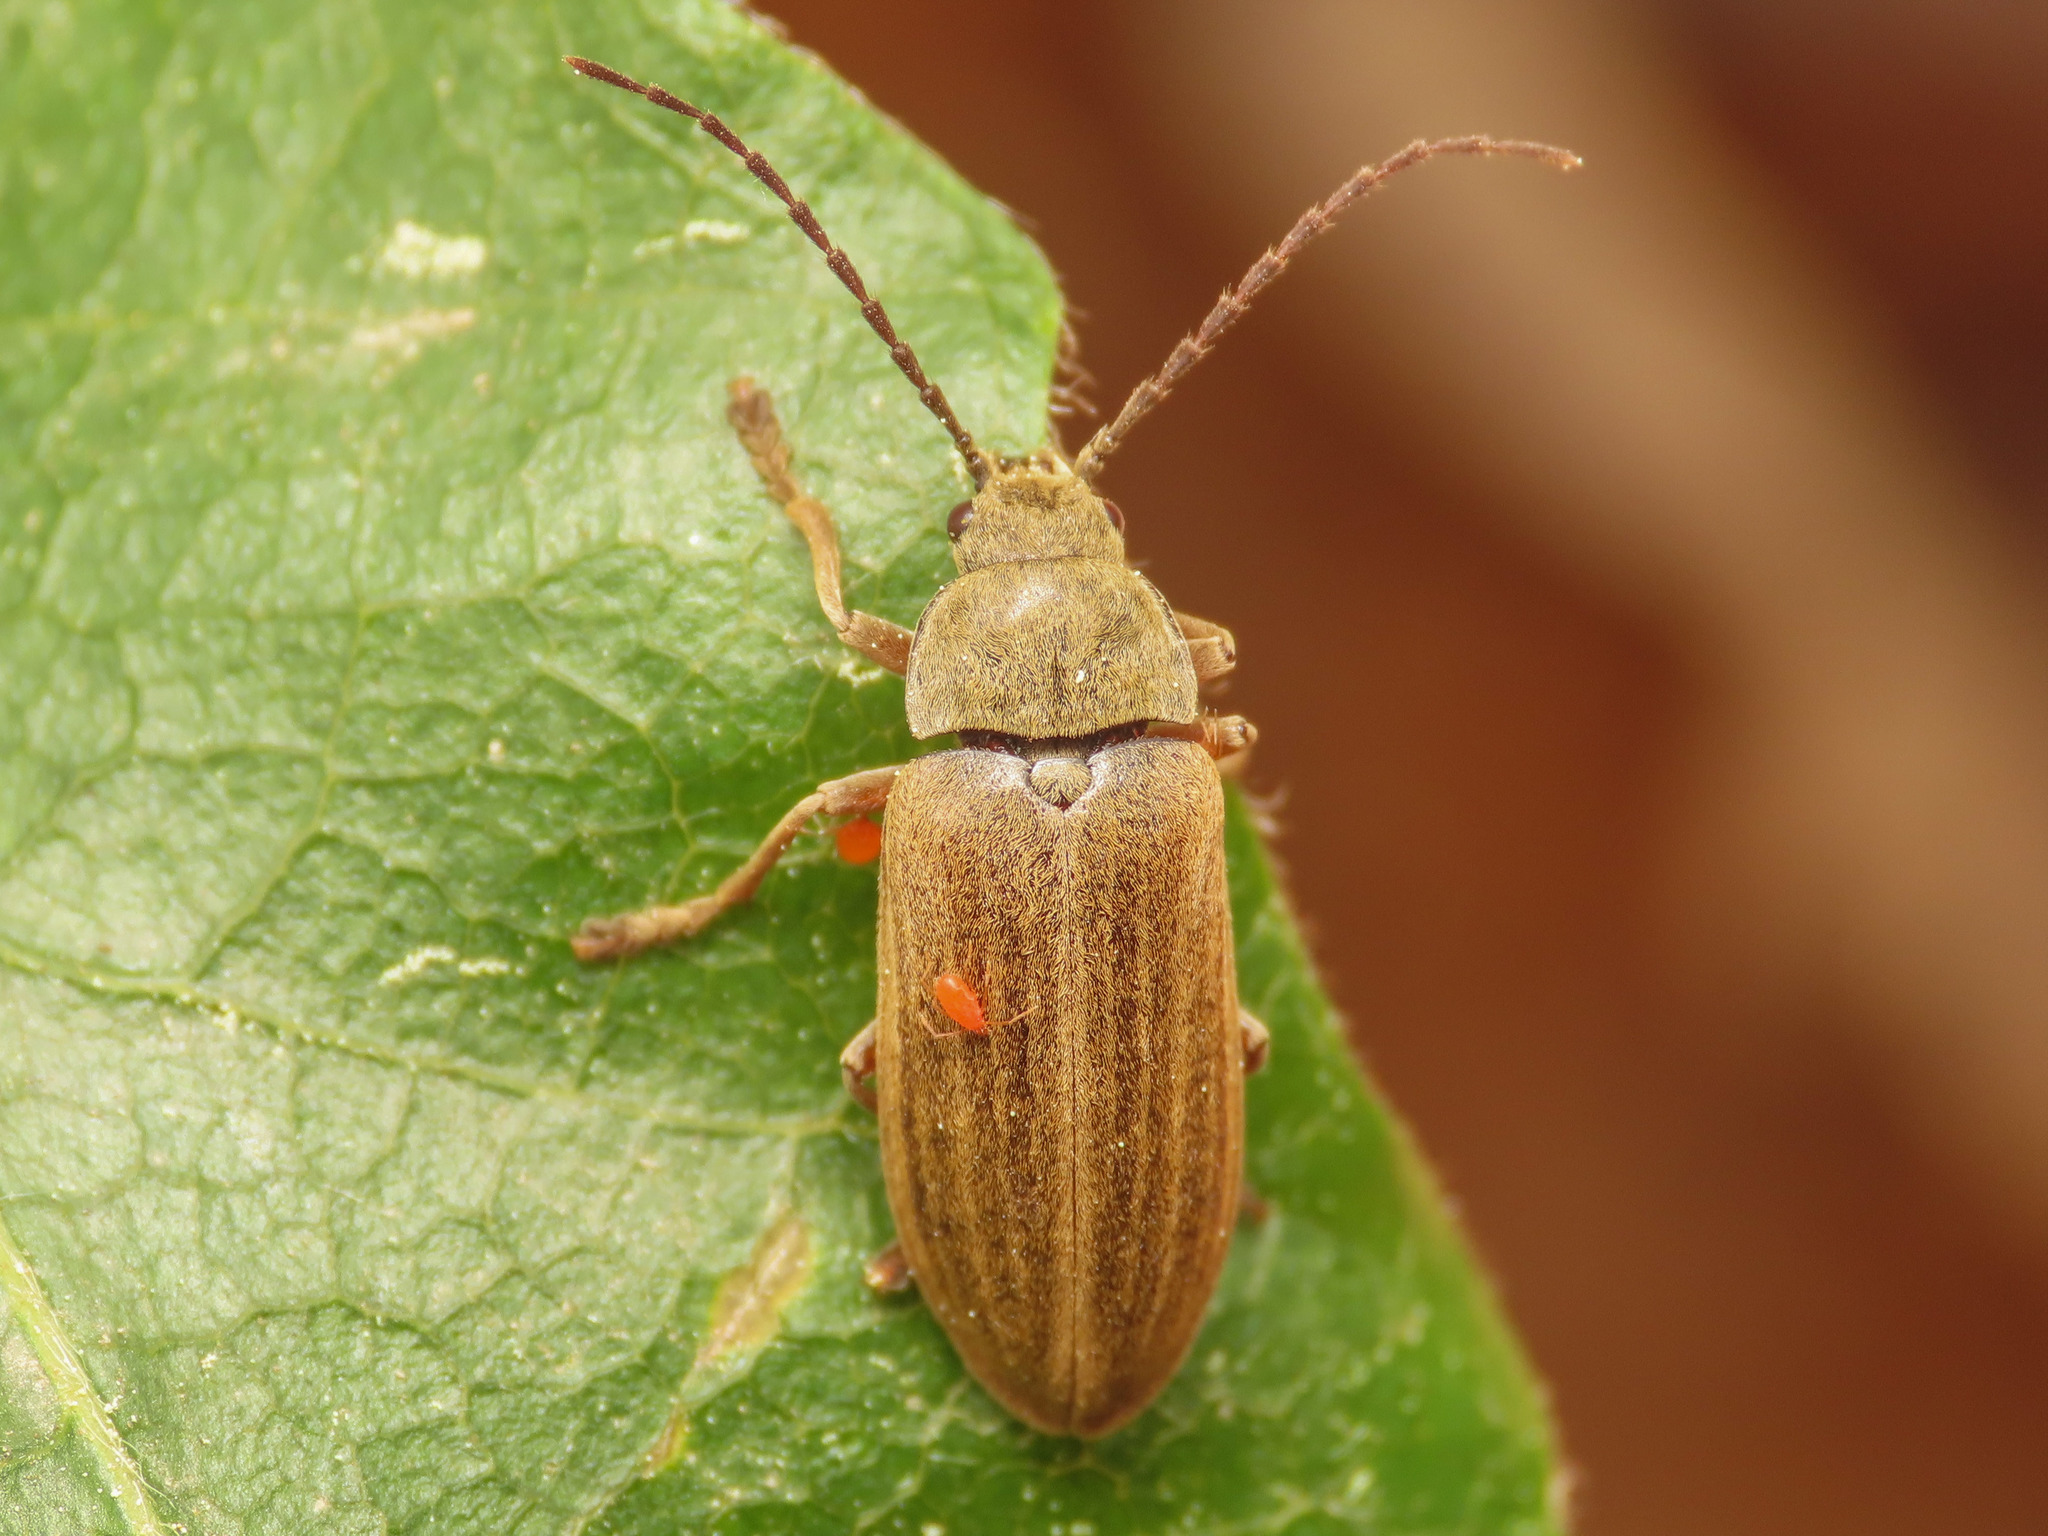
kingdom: Animalia
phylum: Arthropoda
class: Insecta
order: Coleoptera
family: Dascillidae
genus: Dascillus
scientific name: Dascillus cervinus
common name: Orchid beetle
